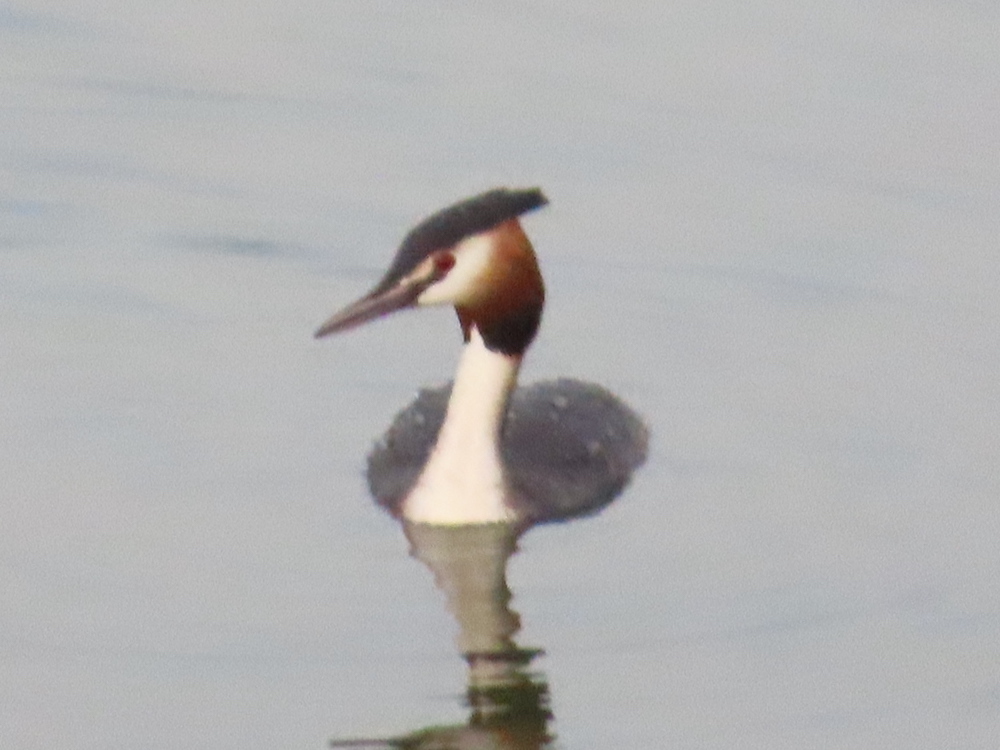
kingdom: Animalia
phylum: Chordata
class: Aves
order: Podicipediformes
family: Podicipedidae
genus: Podiceps
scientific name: Podiceps cristatus
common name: Great crested grebe
